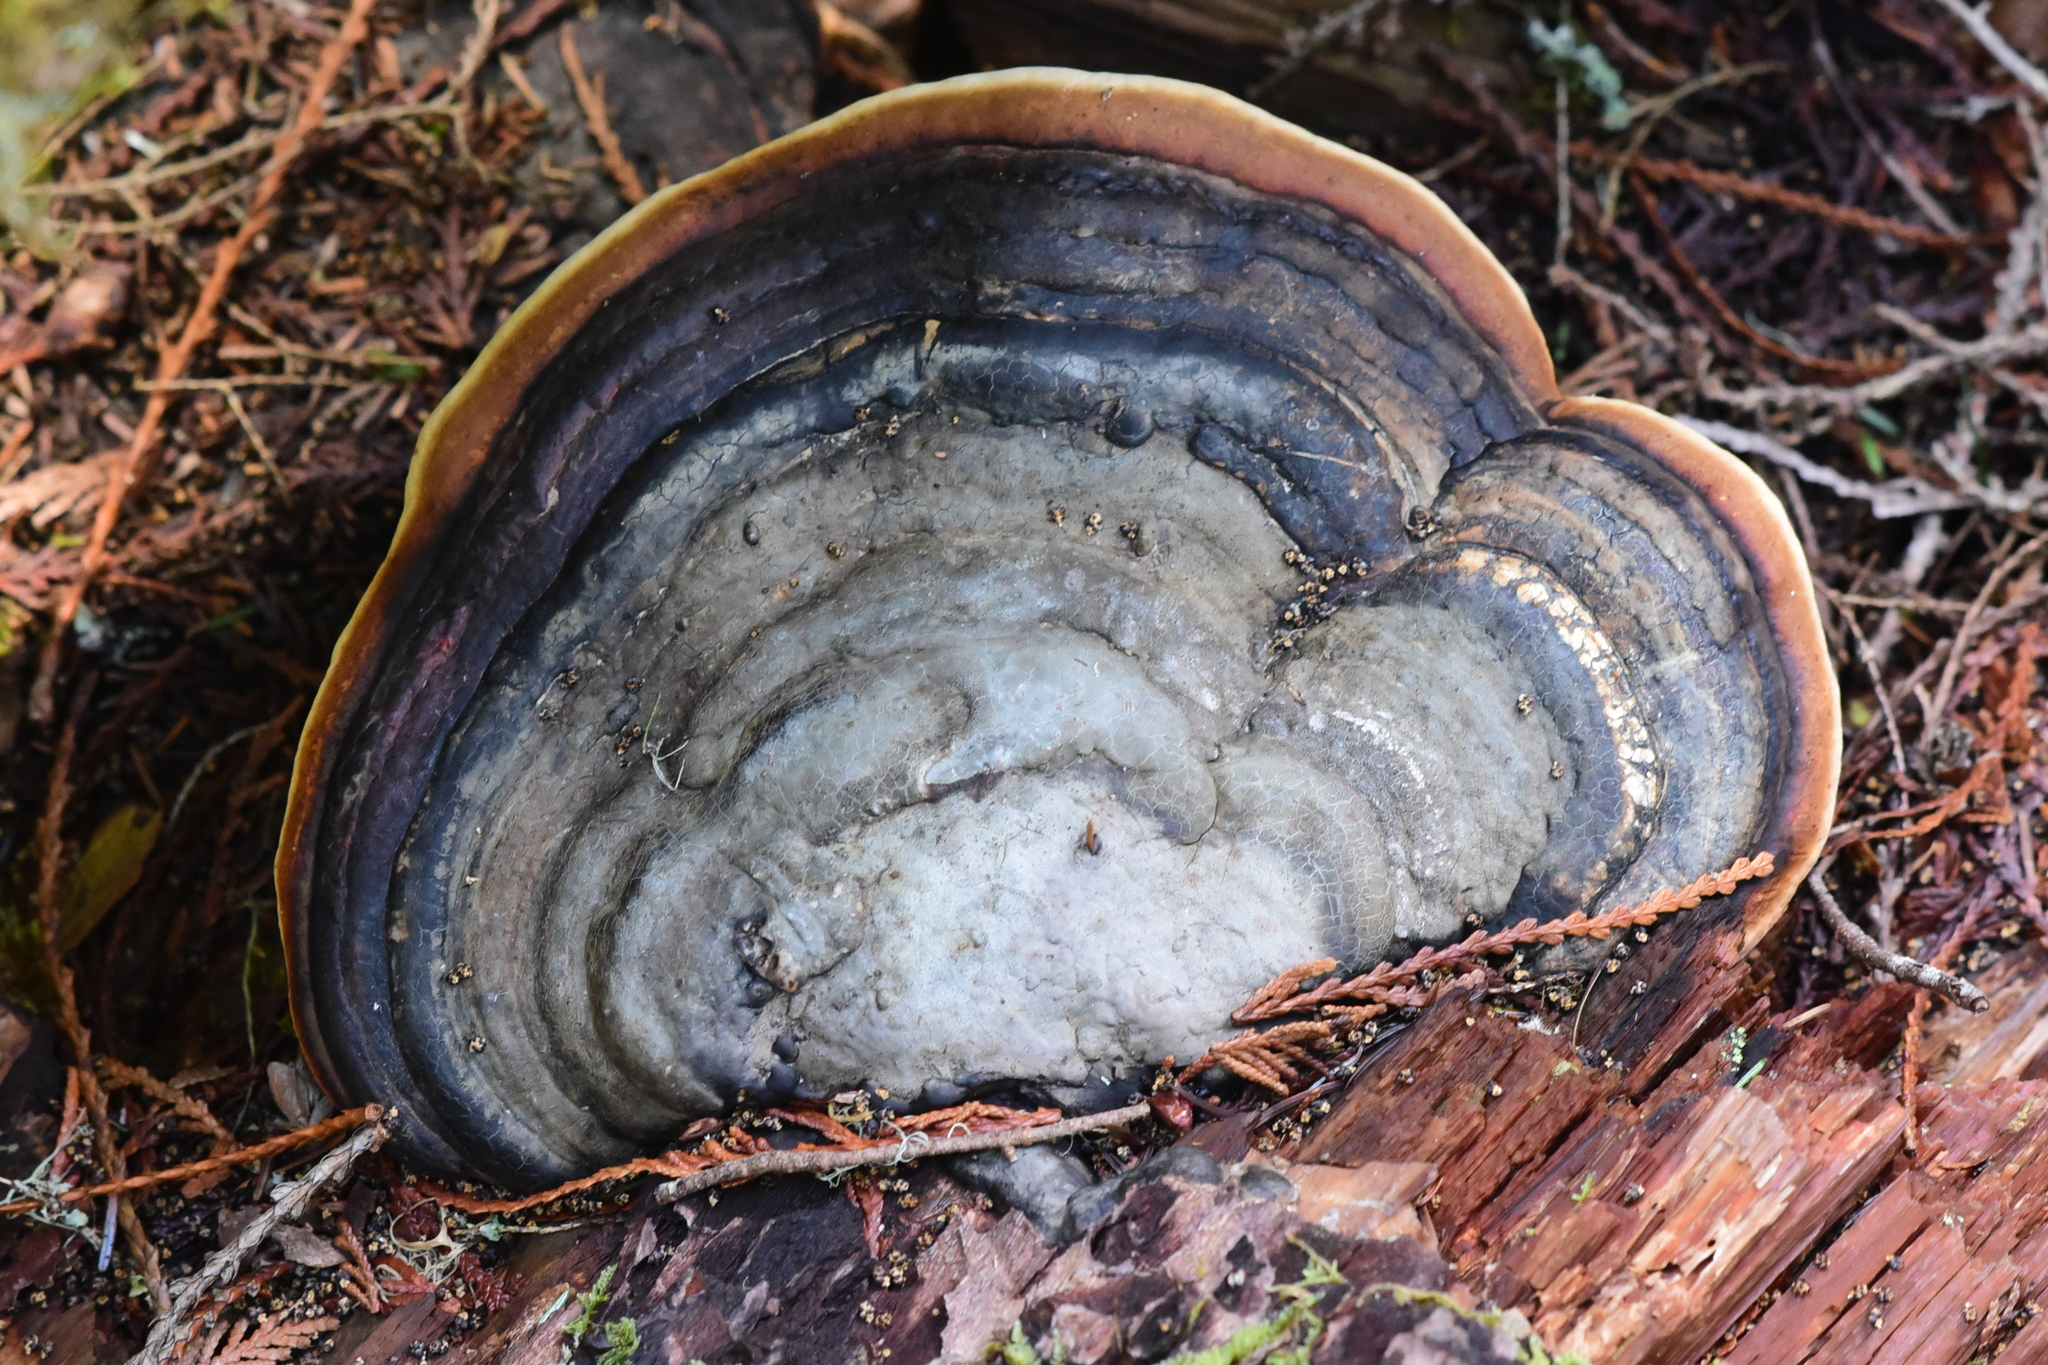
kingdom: Fungi
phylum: Basidiomycota
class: Agaricomycetes
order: Polyporales
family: Fomitopsidaceae
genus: Fomitopsis
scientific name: Fomitopsis mounceae
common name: Northern red belt
